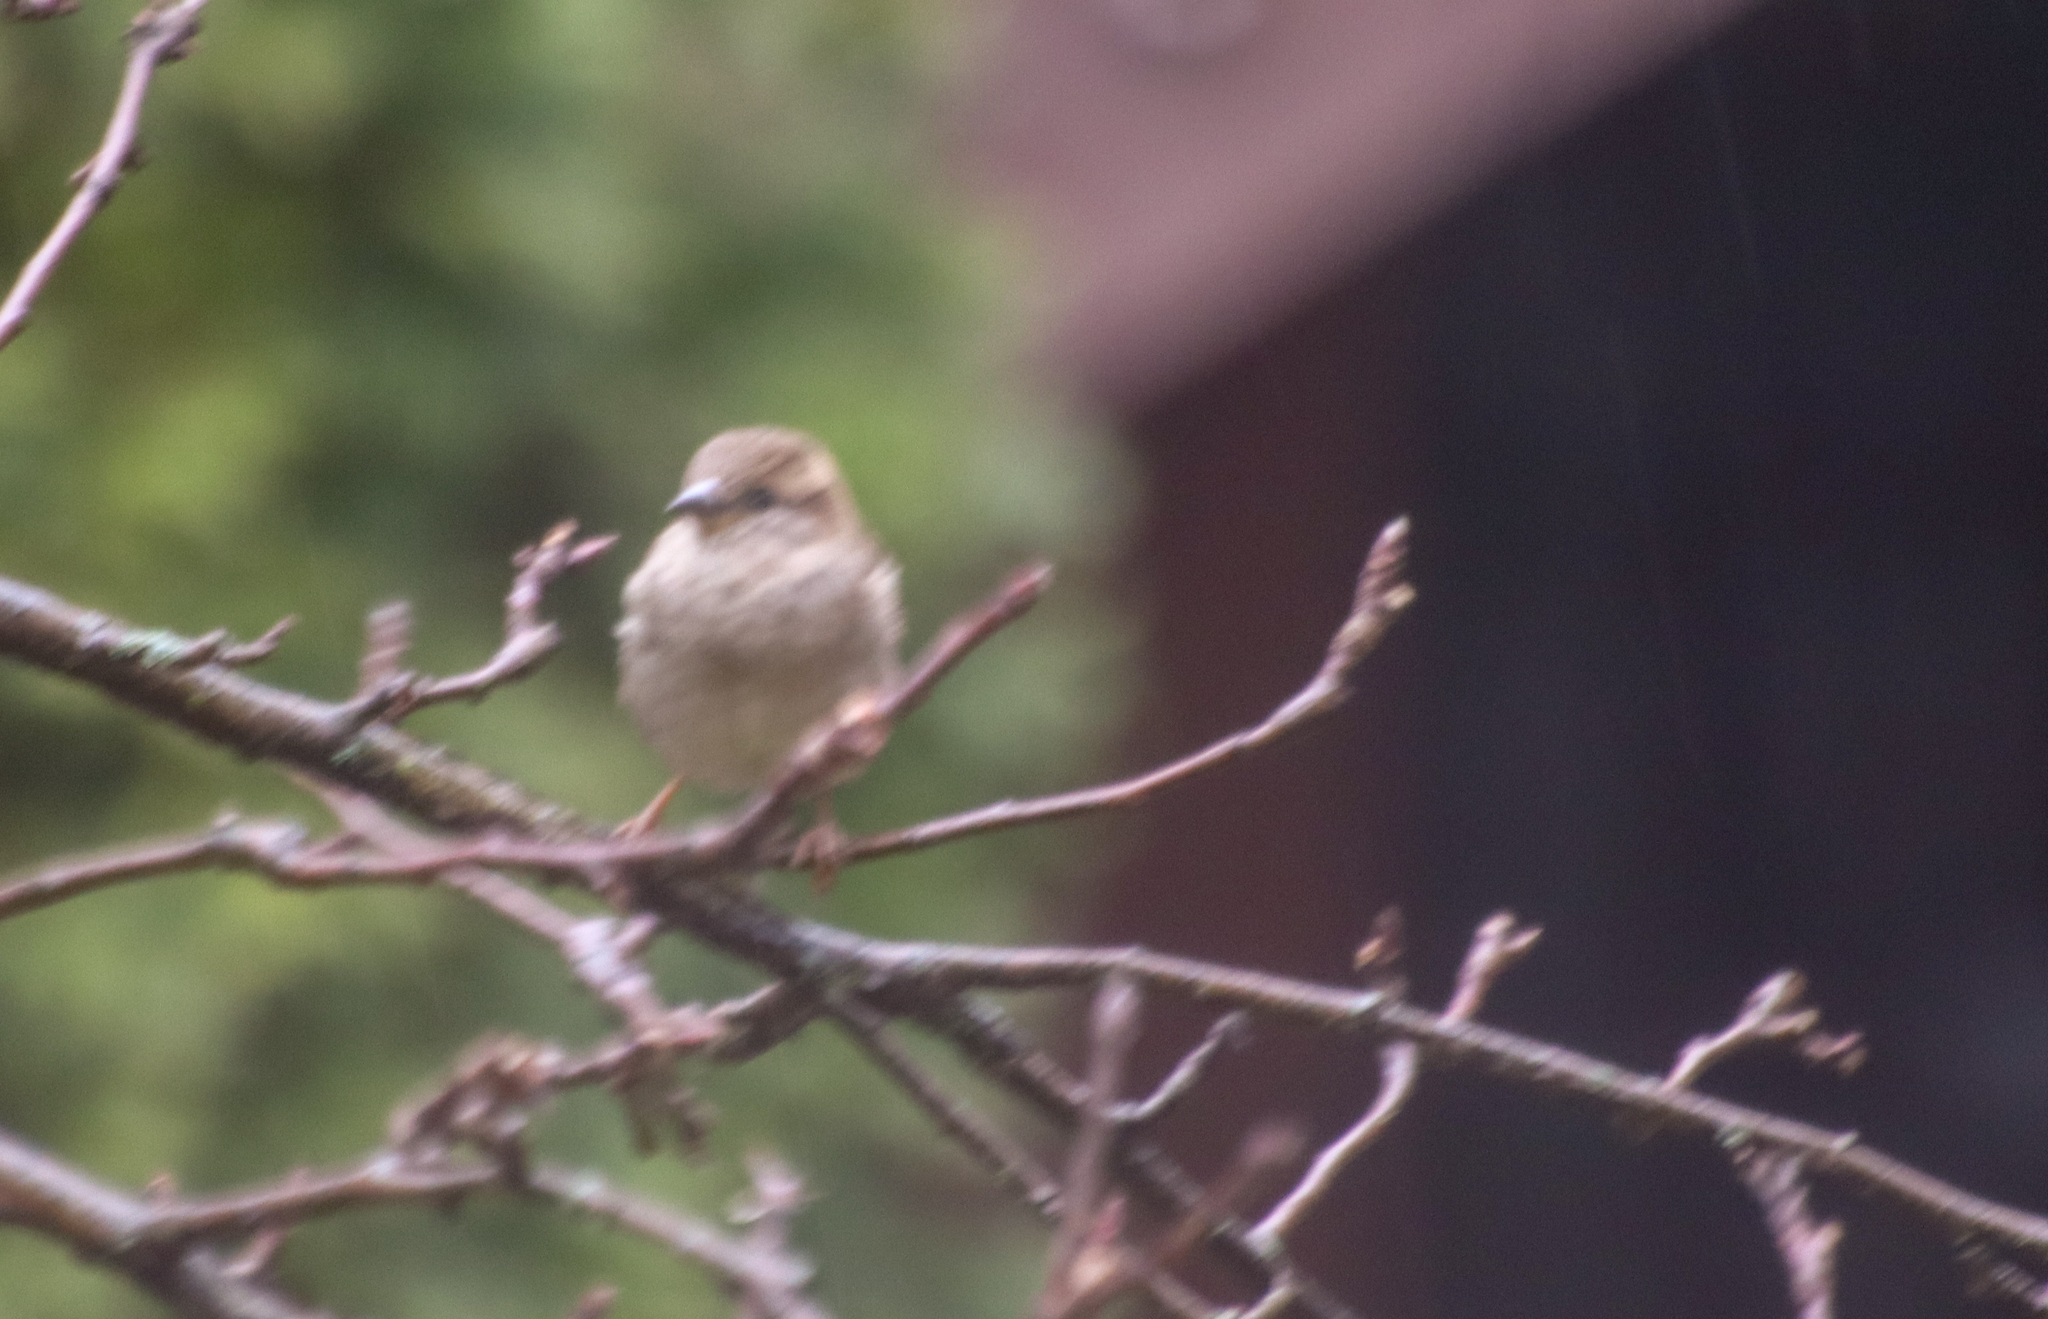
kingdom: Animalia
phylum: Chordata
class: Aves
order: Passeriformes
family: Passeridae
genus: Passer
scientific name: Passer domesticus
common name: House sparrow
